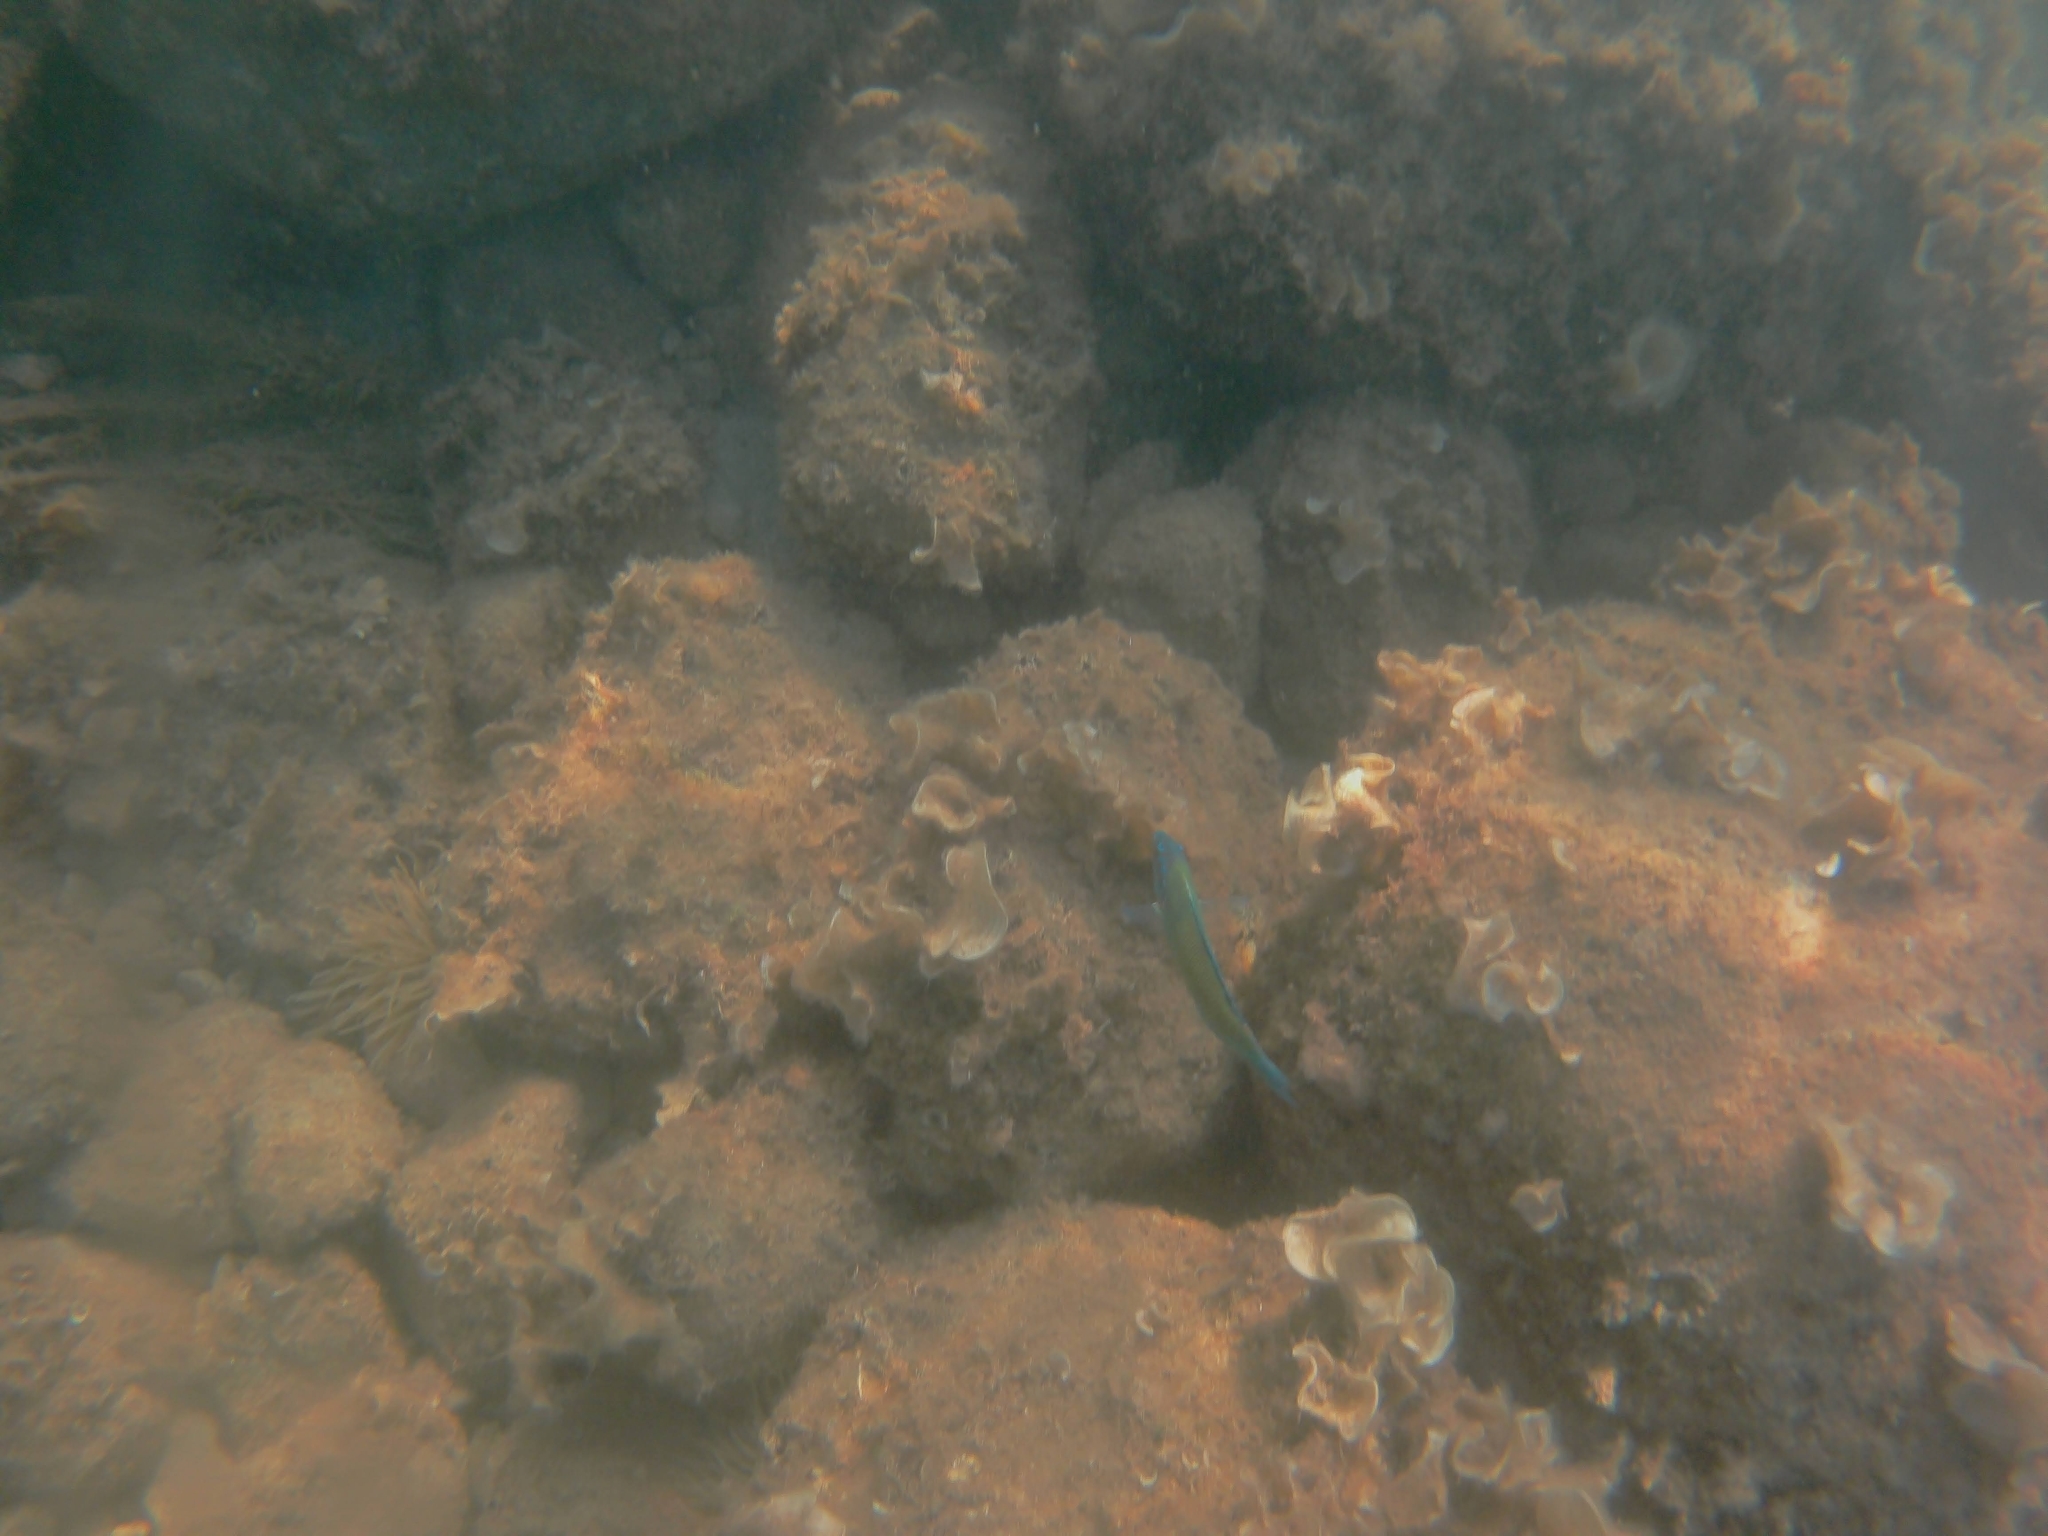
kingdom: Animalia
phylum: Chordata
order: Perciformes
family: Labridae
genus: Thalassoma
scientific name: Thalassoma pavo
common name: Ornate wrasse
